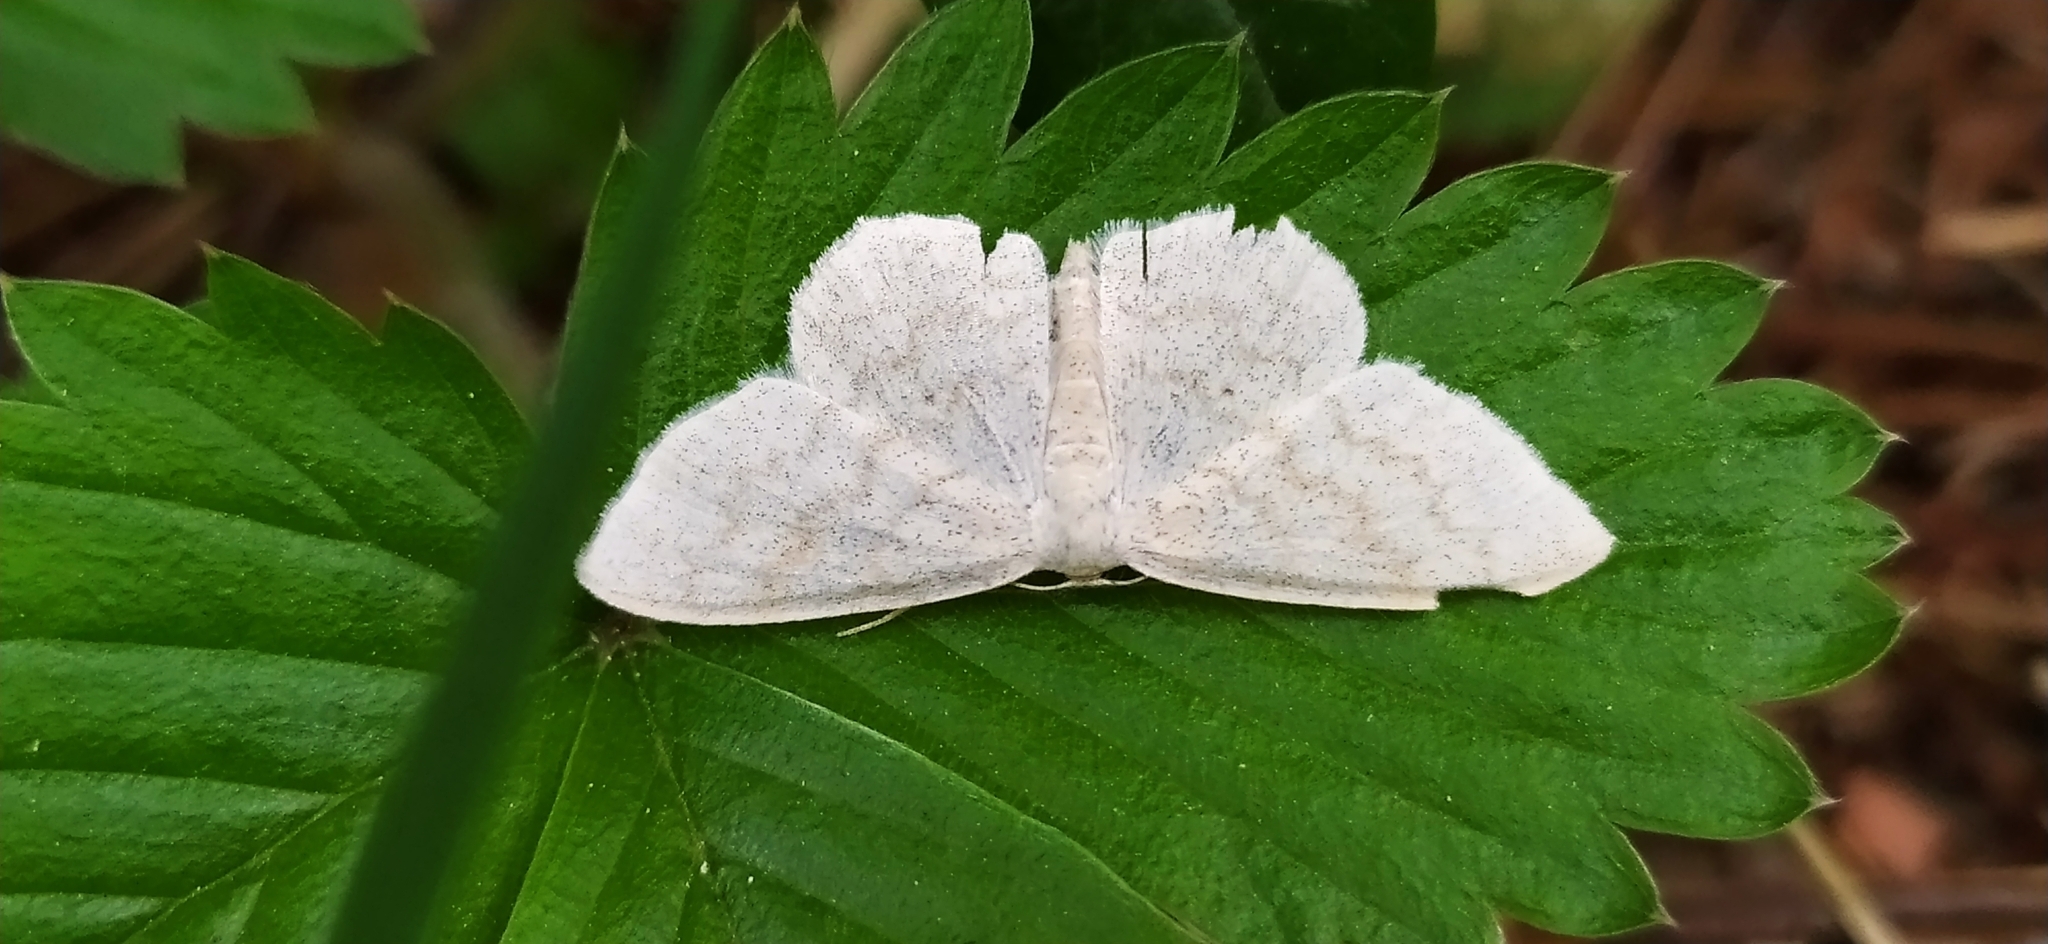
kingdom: Animalia
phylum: Arthropoda
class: Insecta
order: Lepidoptera
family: Geometridae
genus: Scopula
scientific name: Scopula floslactata
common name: Cream wave
